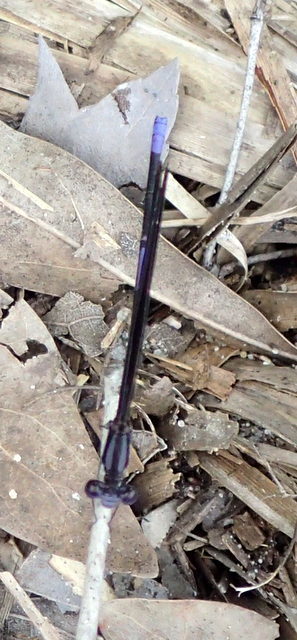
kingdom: Animalia
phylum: Arthropoda
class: Insecta
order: Odonata
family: Coenagrionidae
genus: Argia
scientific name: Argia fumipennis
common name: Variable dancer
